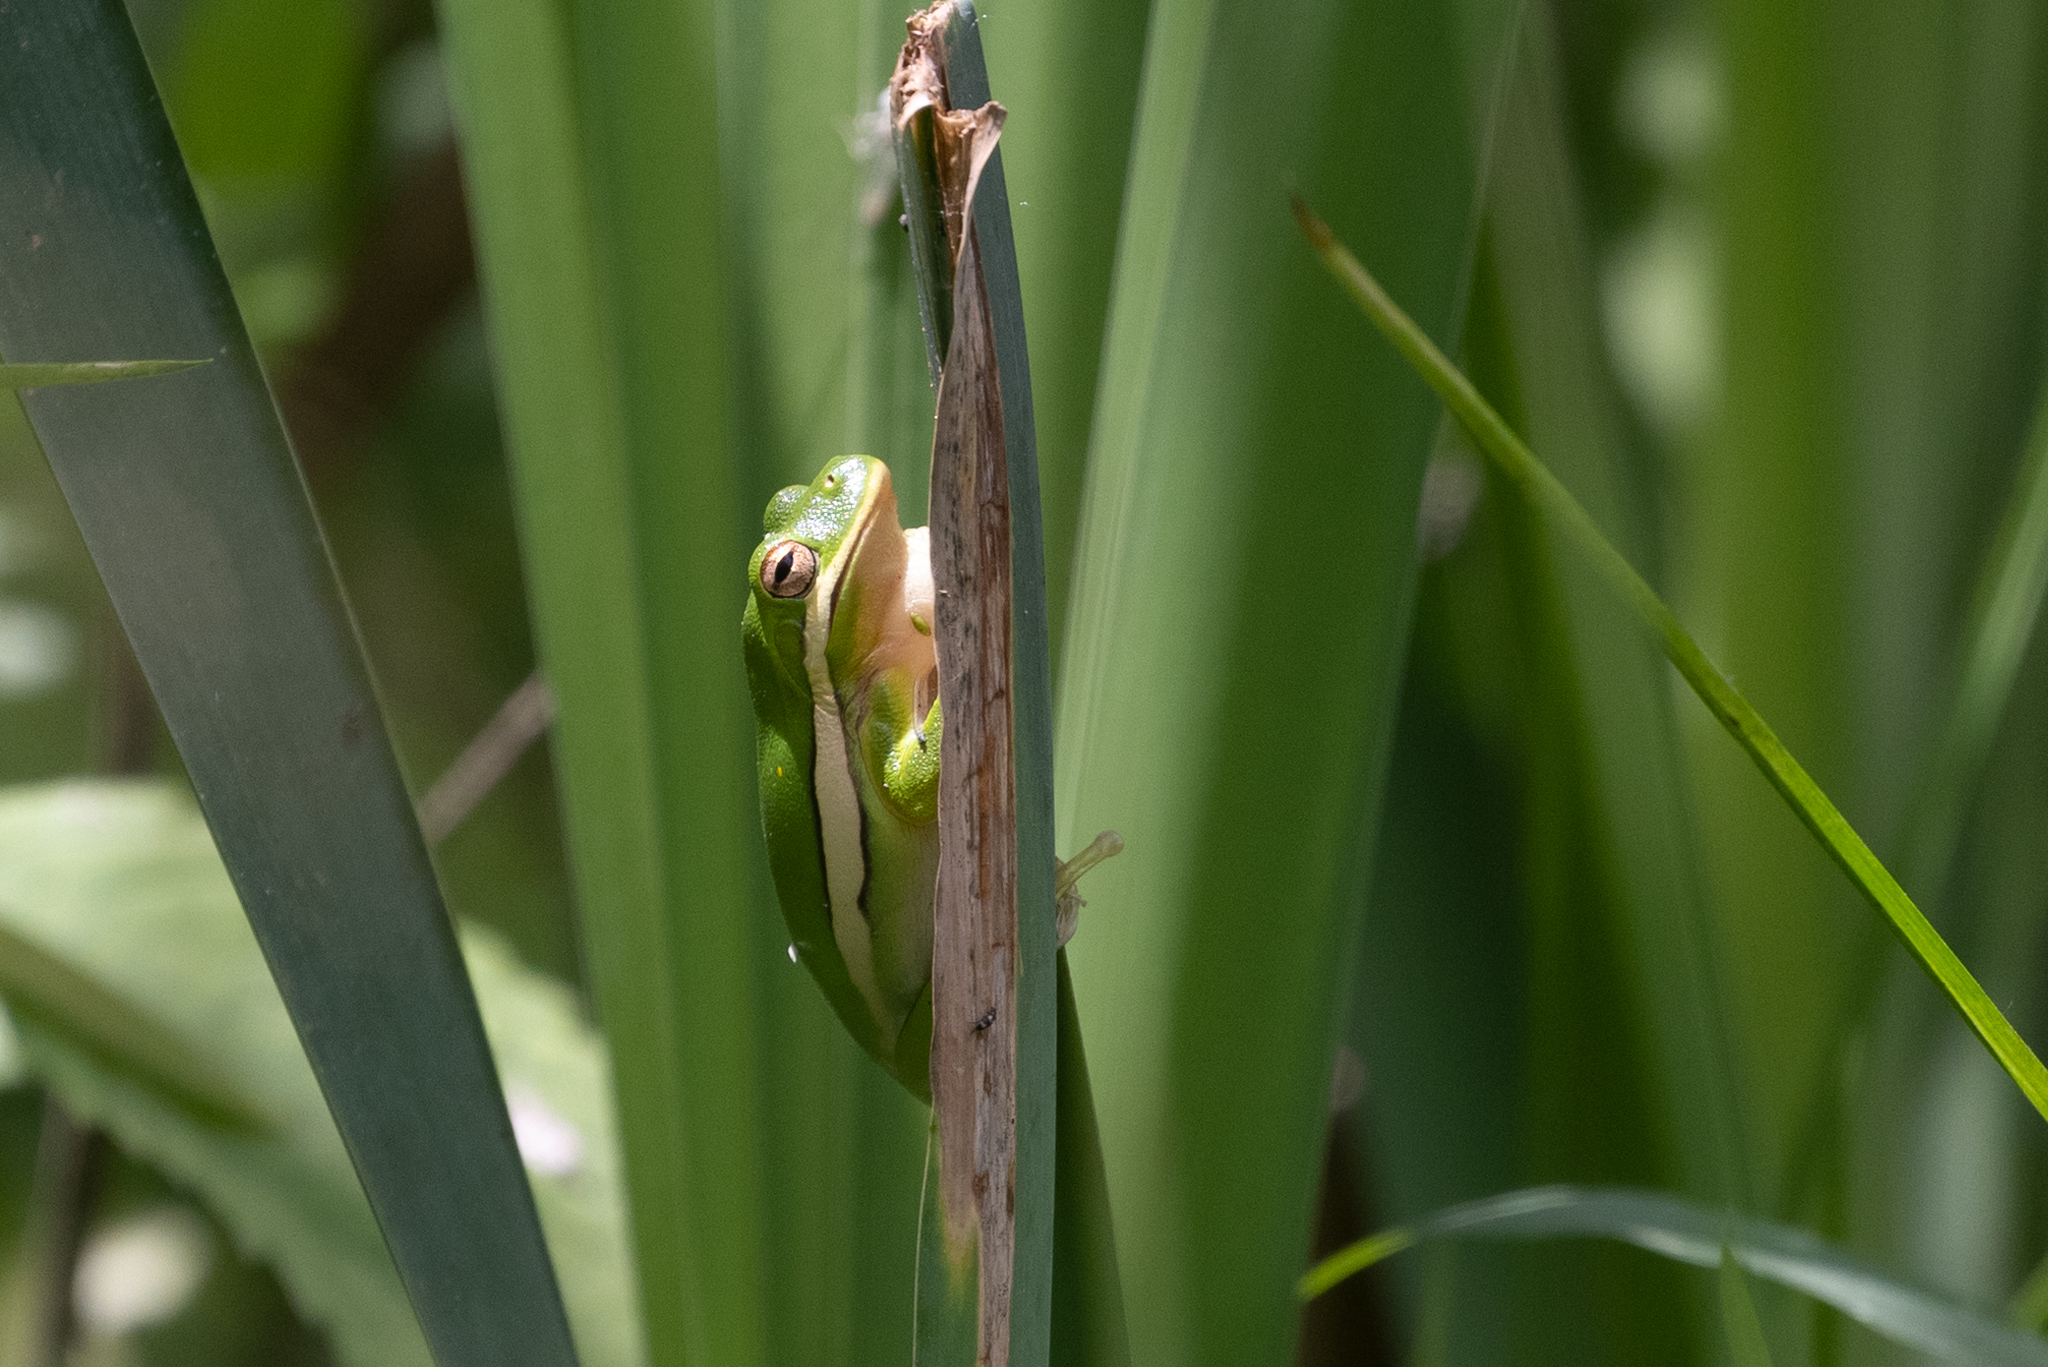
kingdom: Animalia
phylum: Chordata
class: Amphibia
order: Anura
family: Hylidae
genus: Dryophytes
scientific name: Dryophytes cinereus
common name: Green treefrog
